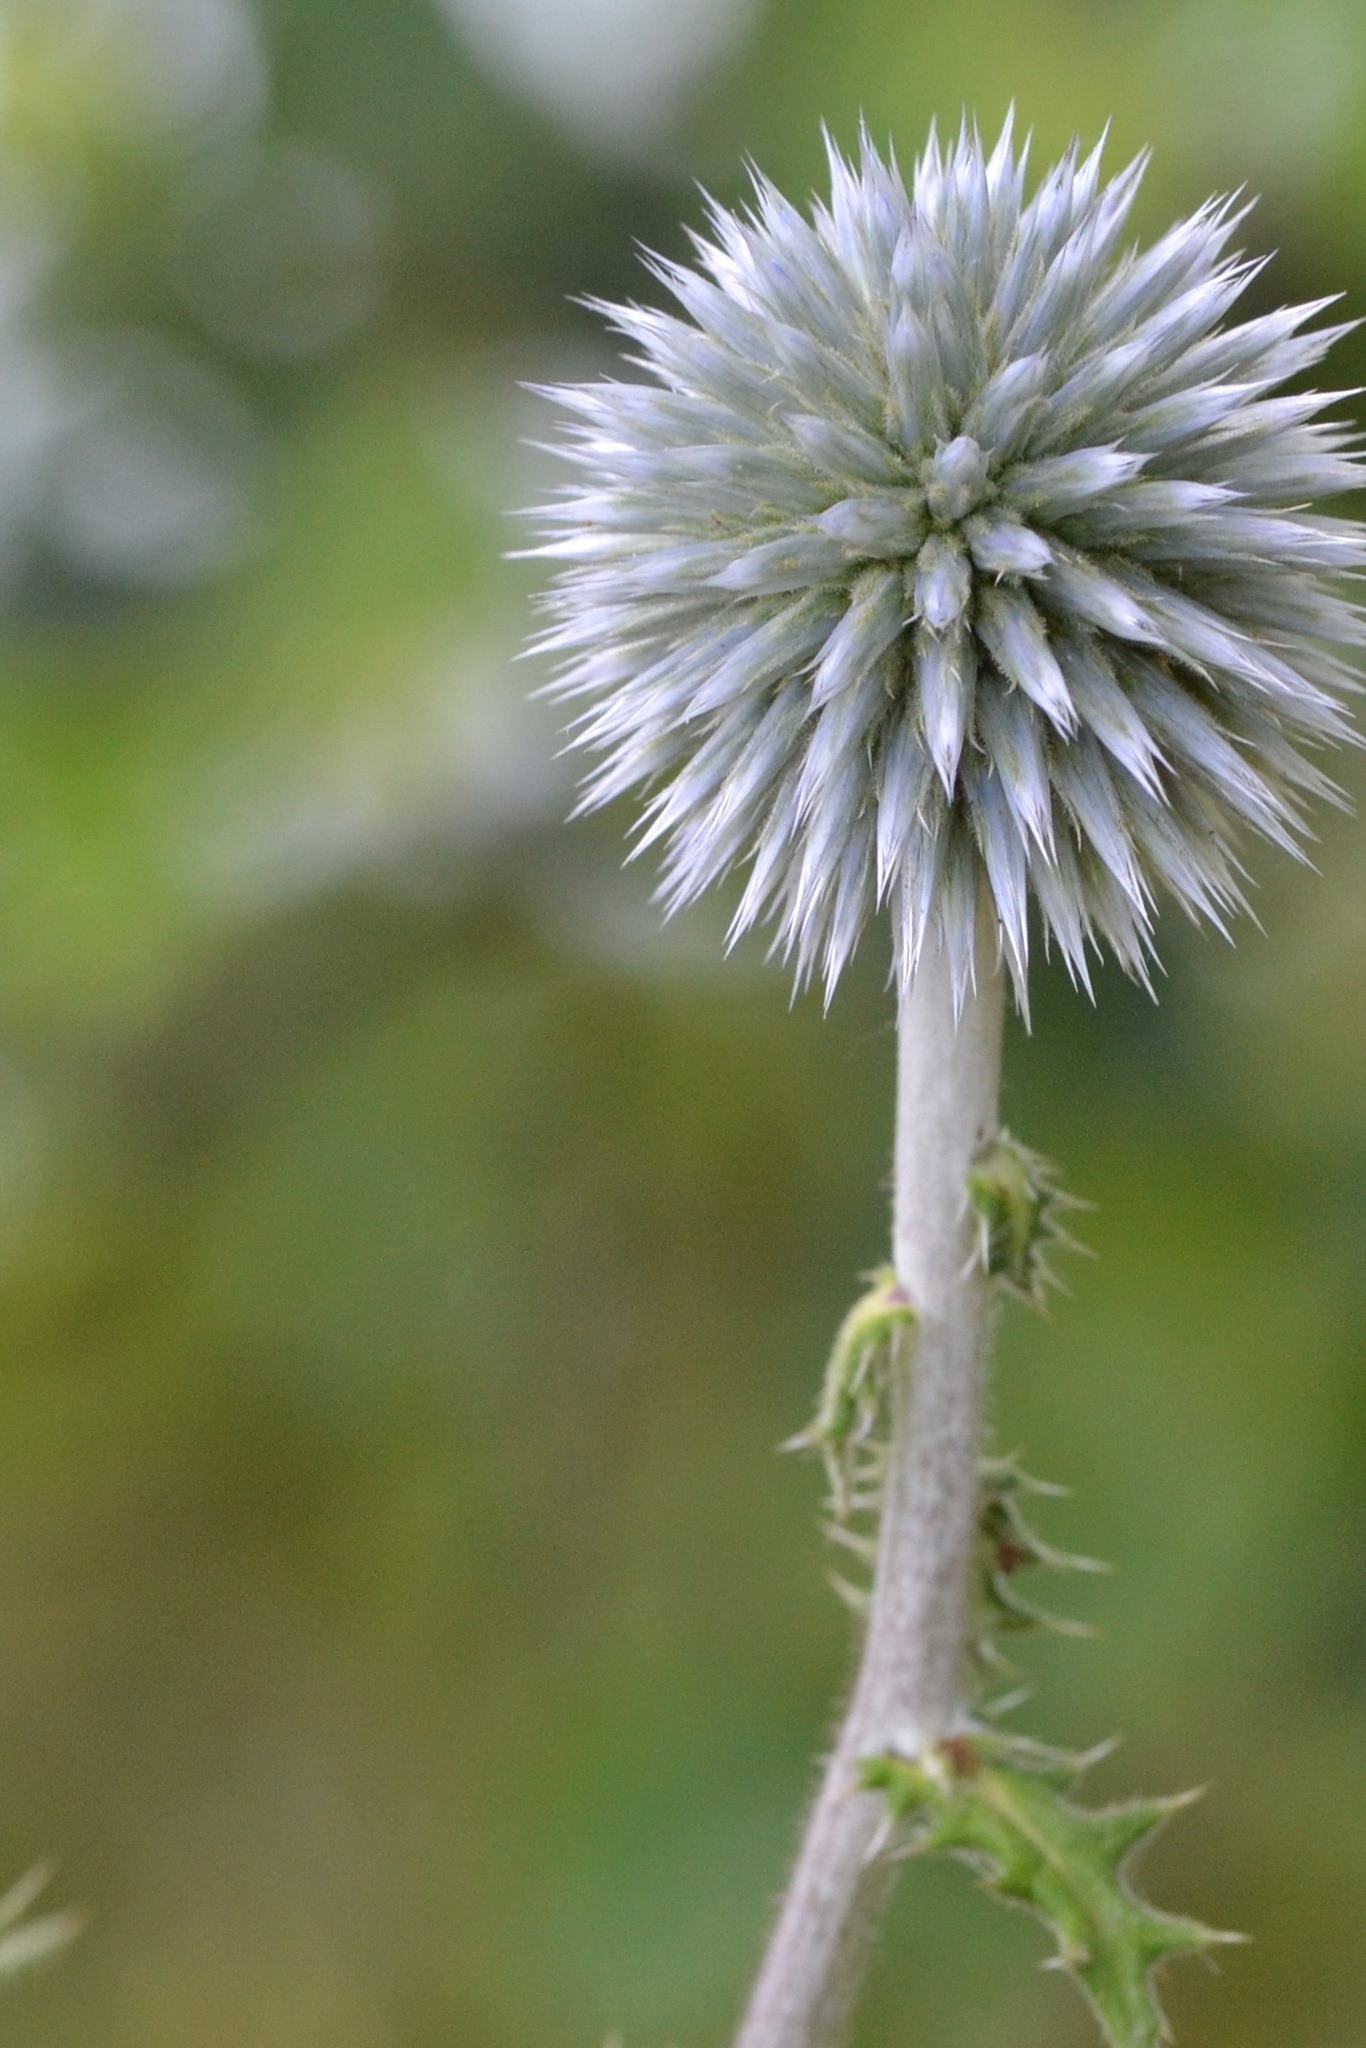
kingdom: Plantae
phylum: Tracheophyta
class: Magnoliopsida
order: Asterales
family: Asteraceae
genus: Echinops
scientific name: Echinops sphaerocephalus
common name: Glandular globe-thistle
